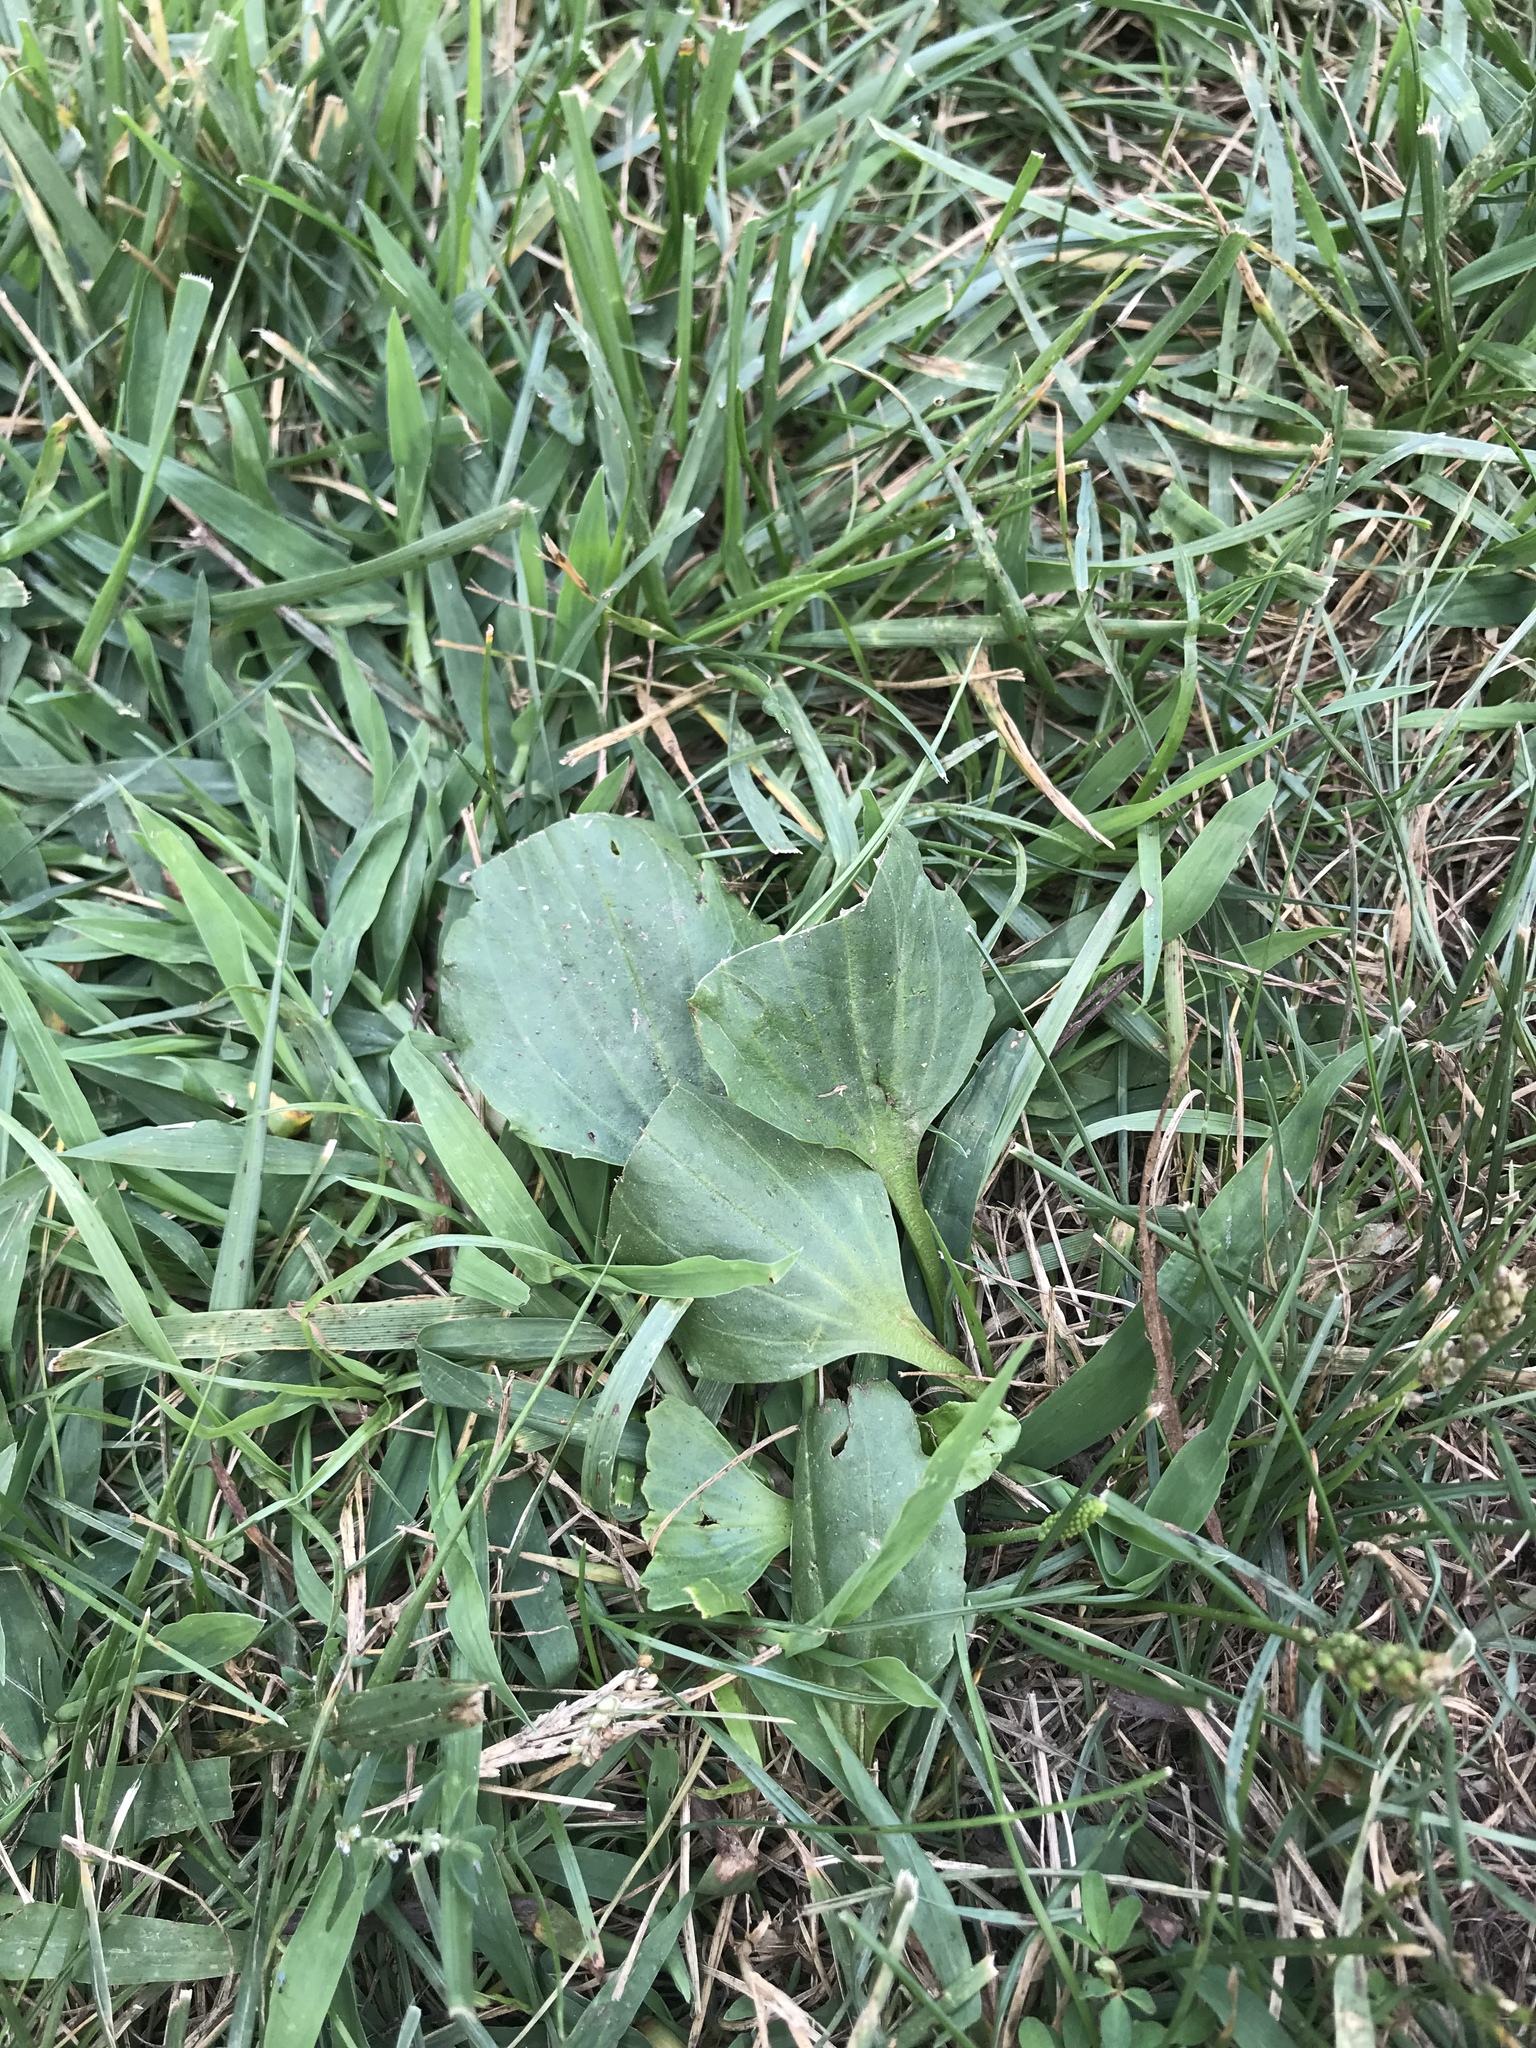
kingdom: Plantae
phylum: Tracheophyta
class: Magnoliopsida
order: Lamiales
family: Plantaginaceae
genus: Plantago
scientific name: Plantago major
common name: Common plantain
